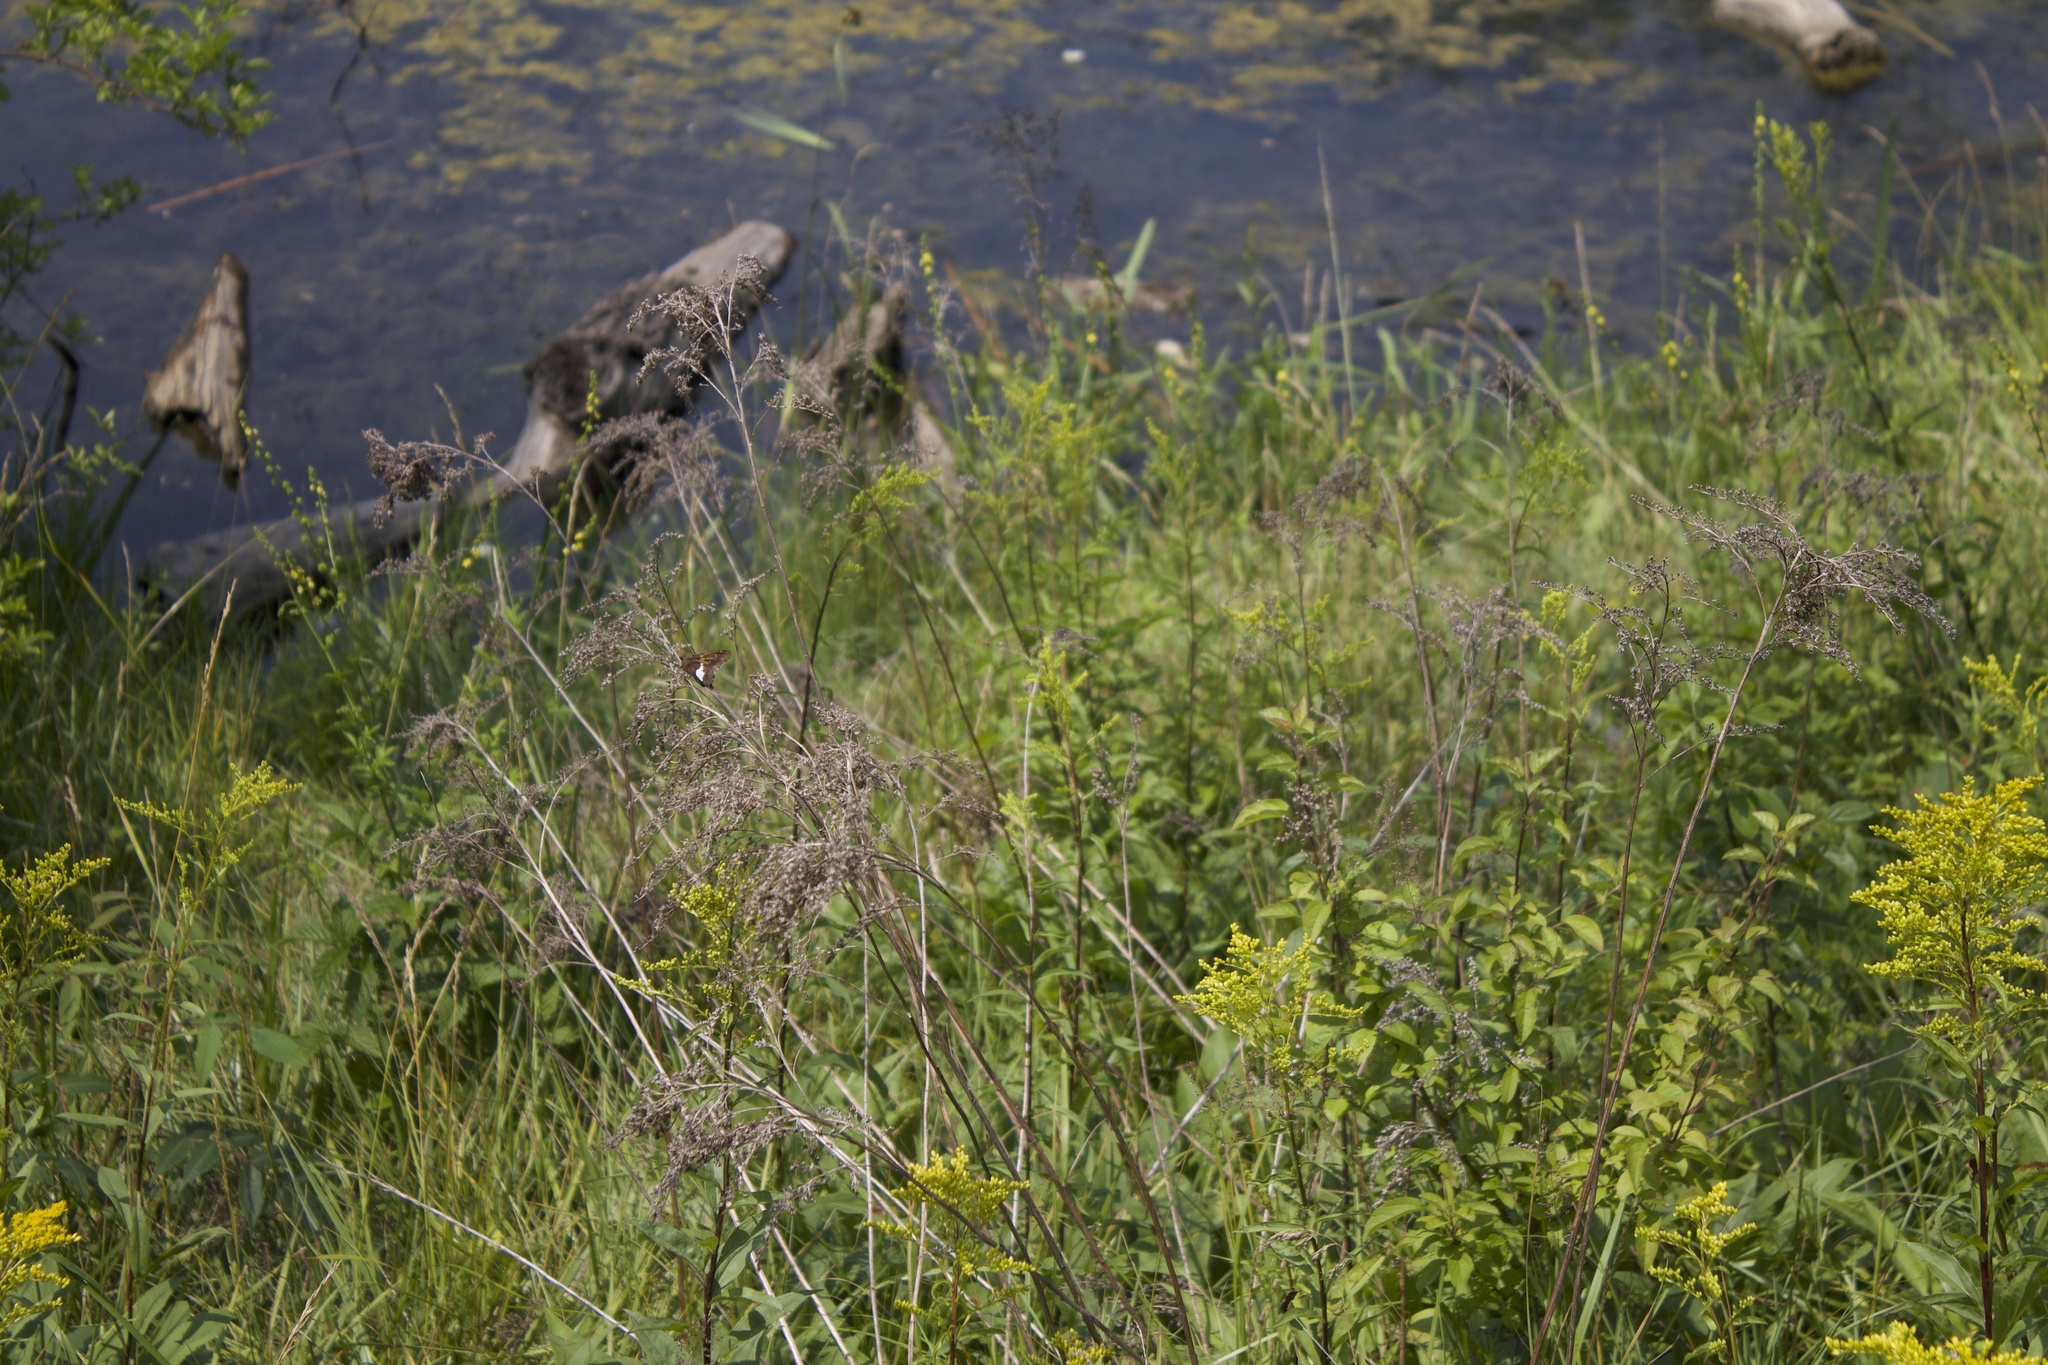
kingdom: Animalia
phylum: Arthropoda
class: Insecta
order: Lepidoptera
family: Hesperiidae
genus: Epargyreus
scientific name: Epargyreus clarus
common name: Silver-spotted skipper
